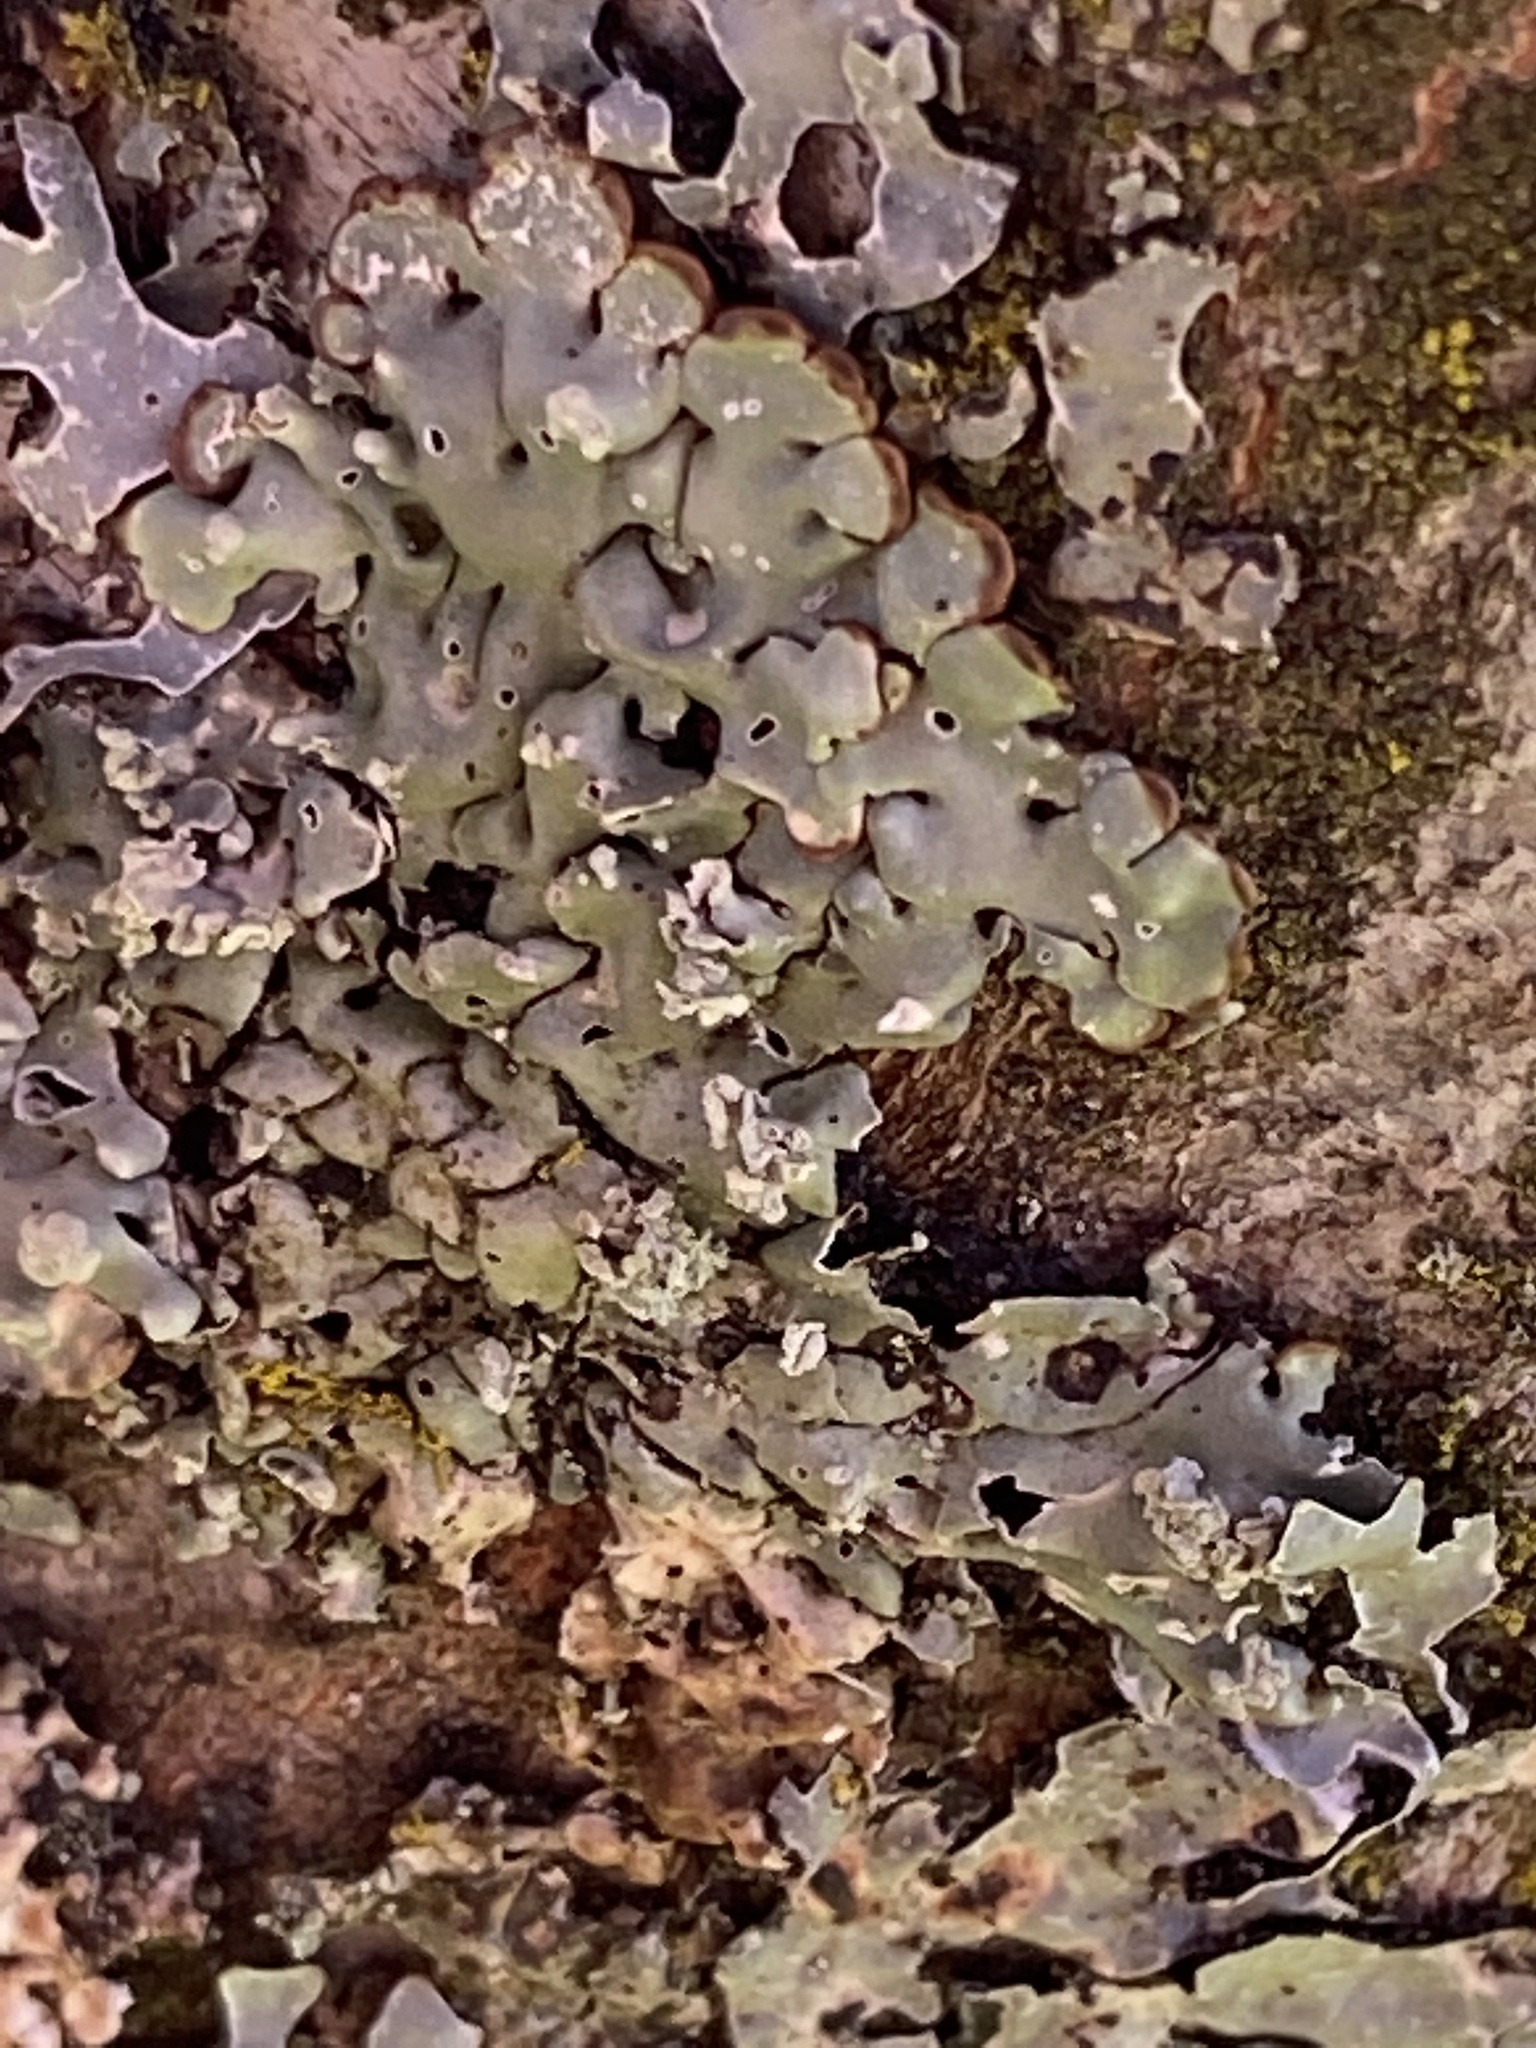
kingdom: Fungi
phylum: Ascomycota
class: Lecanoromycetes
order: Lecanorales
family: Parmeliaceae
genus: Menegazzia
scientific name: Menegazzia subsimilis
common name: Tree flute lichen
